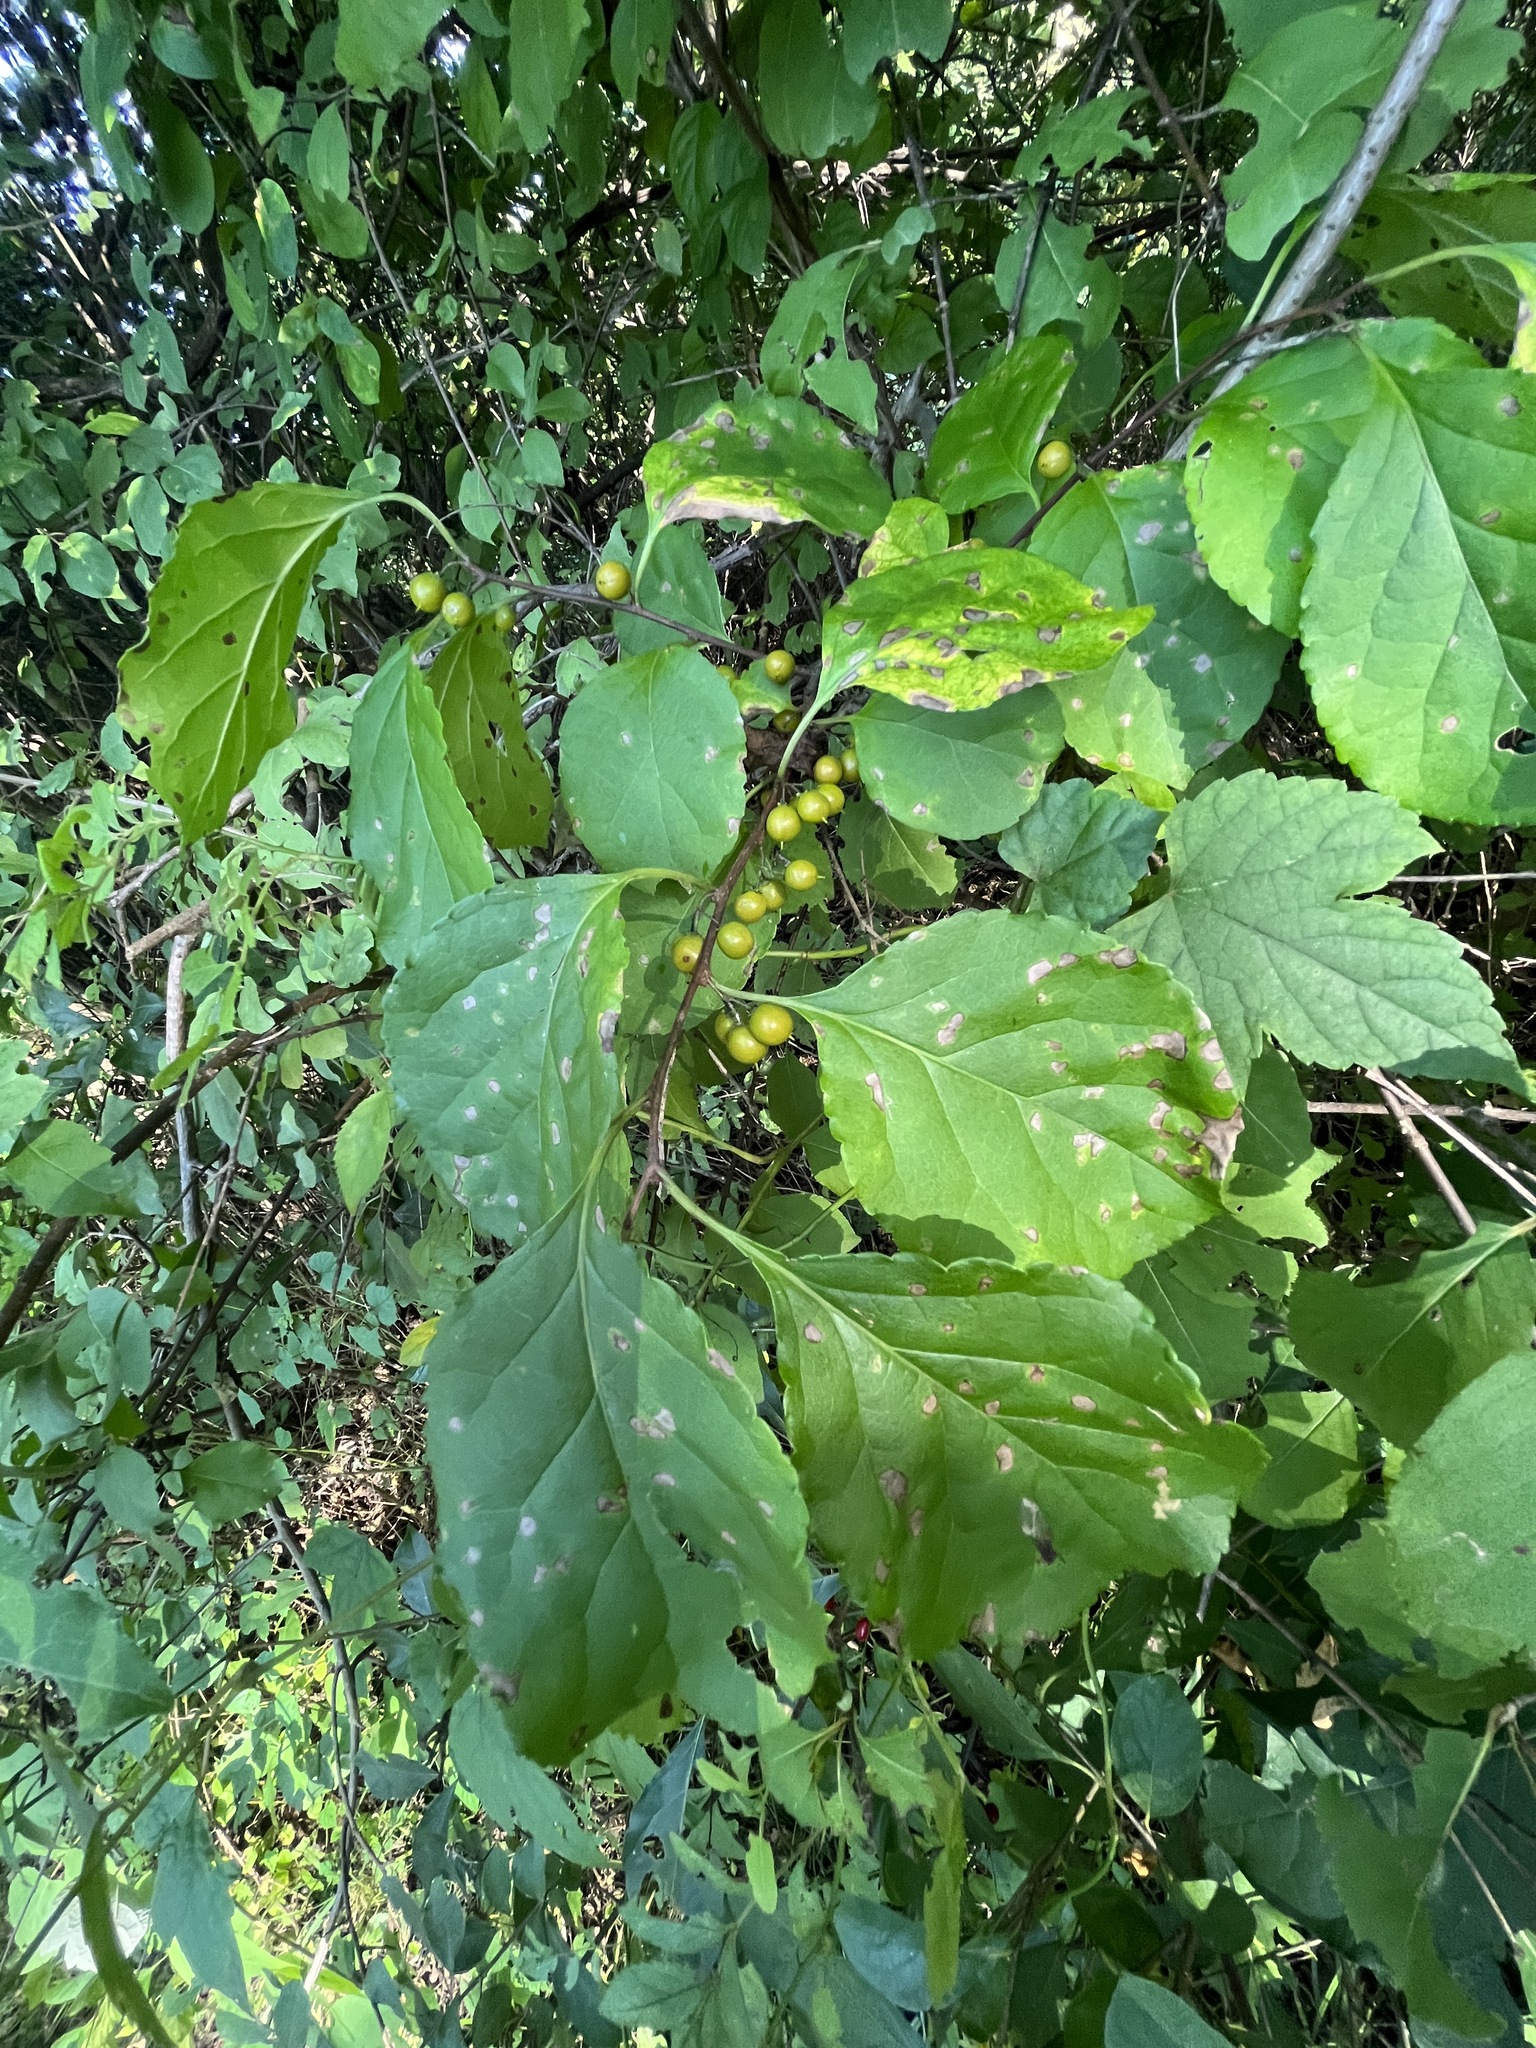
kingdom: Plantae
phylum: Tracheophyta
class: Magnoliopsida
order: Celastrales
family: Celastraceae
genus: Celastrus
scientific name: Celastrus orbiculatus
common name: Oriental bittersweet
